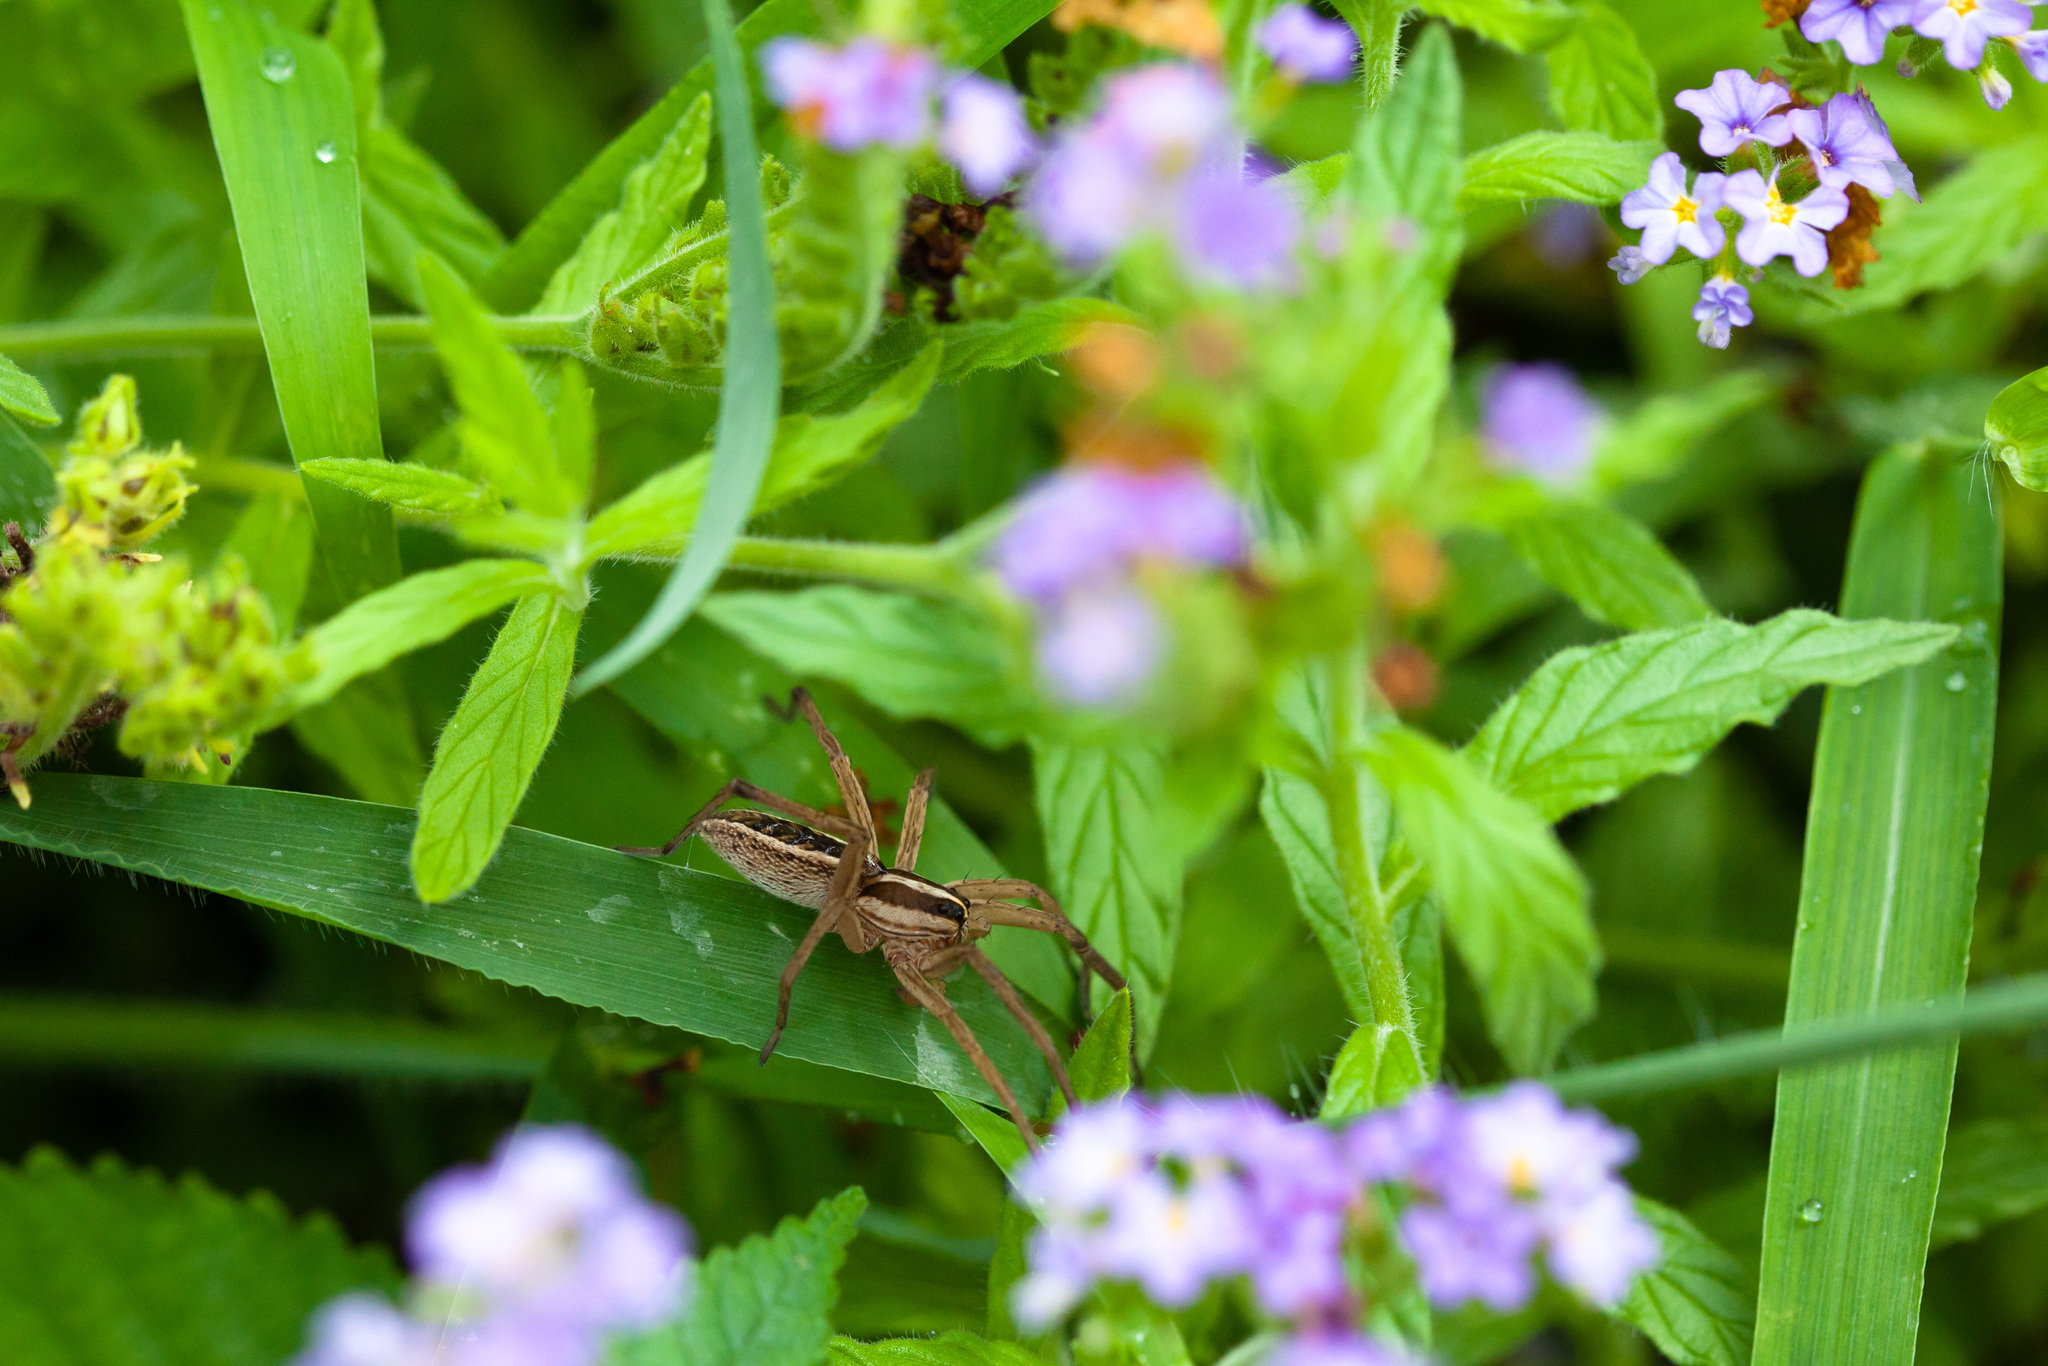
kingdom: Animalia
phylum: Arthropoda
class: Arachnida
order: Araneae
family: Lycosidae
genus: Rabidosa
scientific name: Rabidosa rabida
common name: Rabid wolf spider
